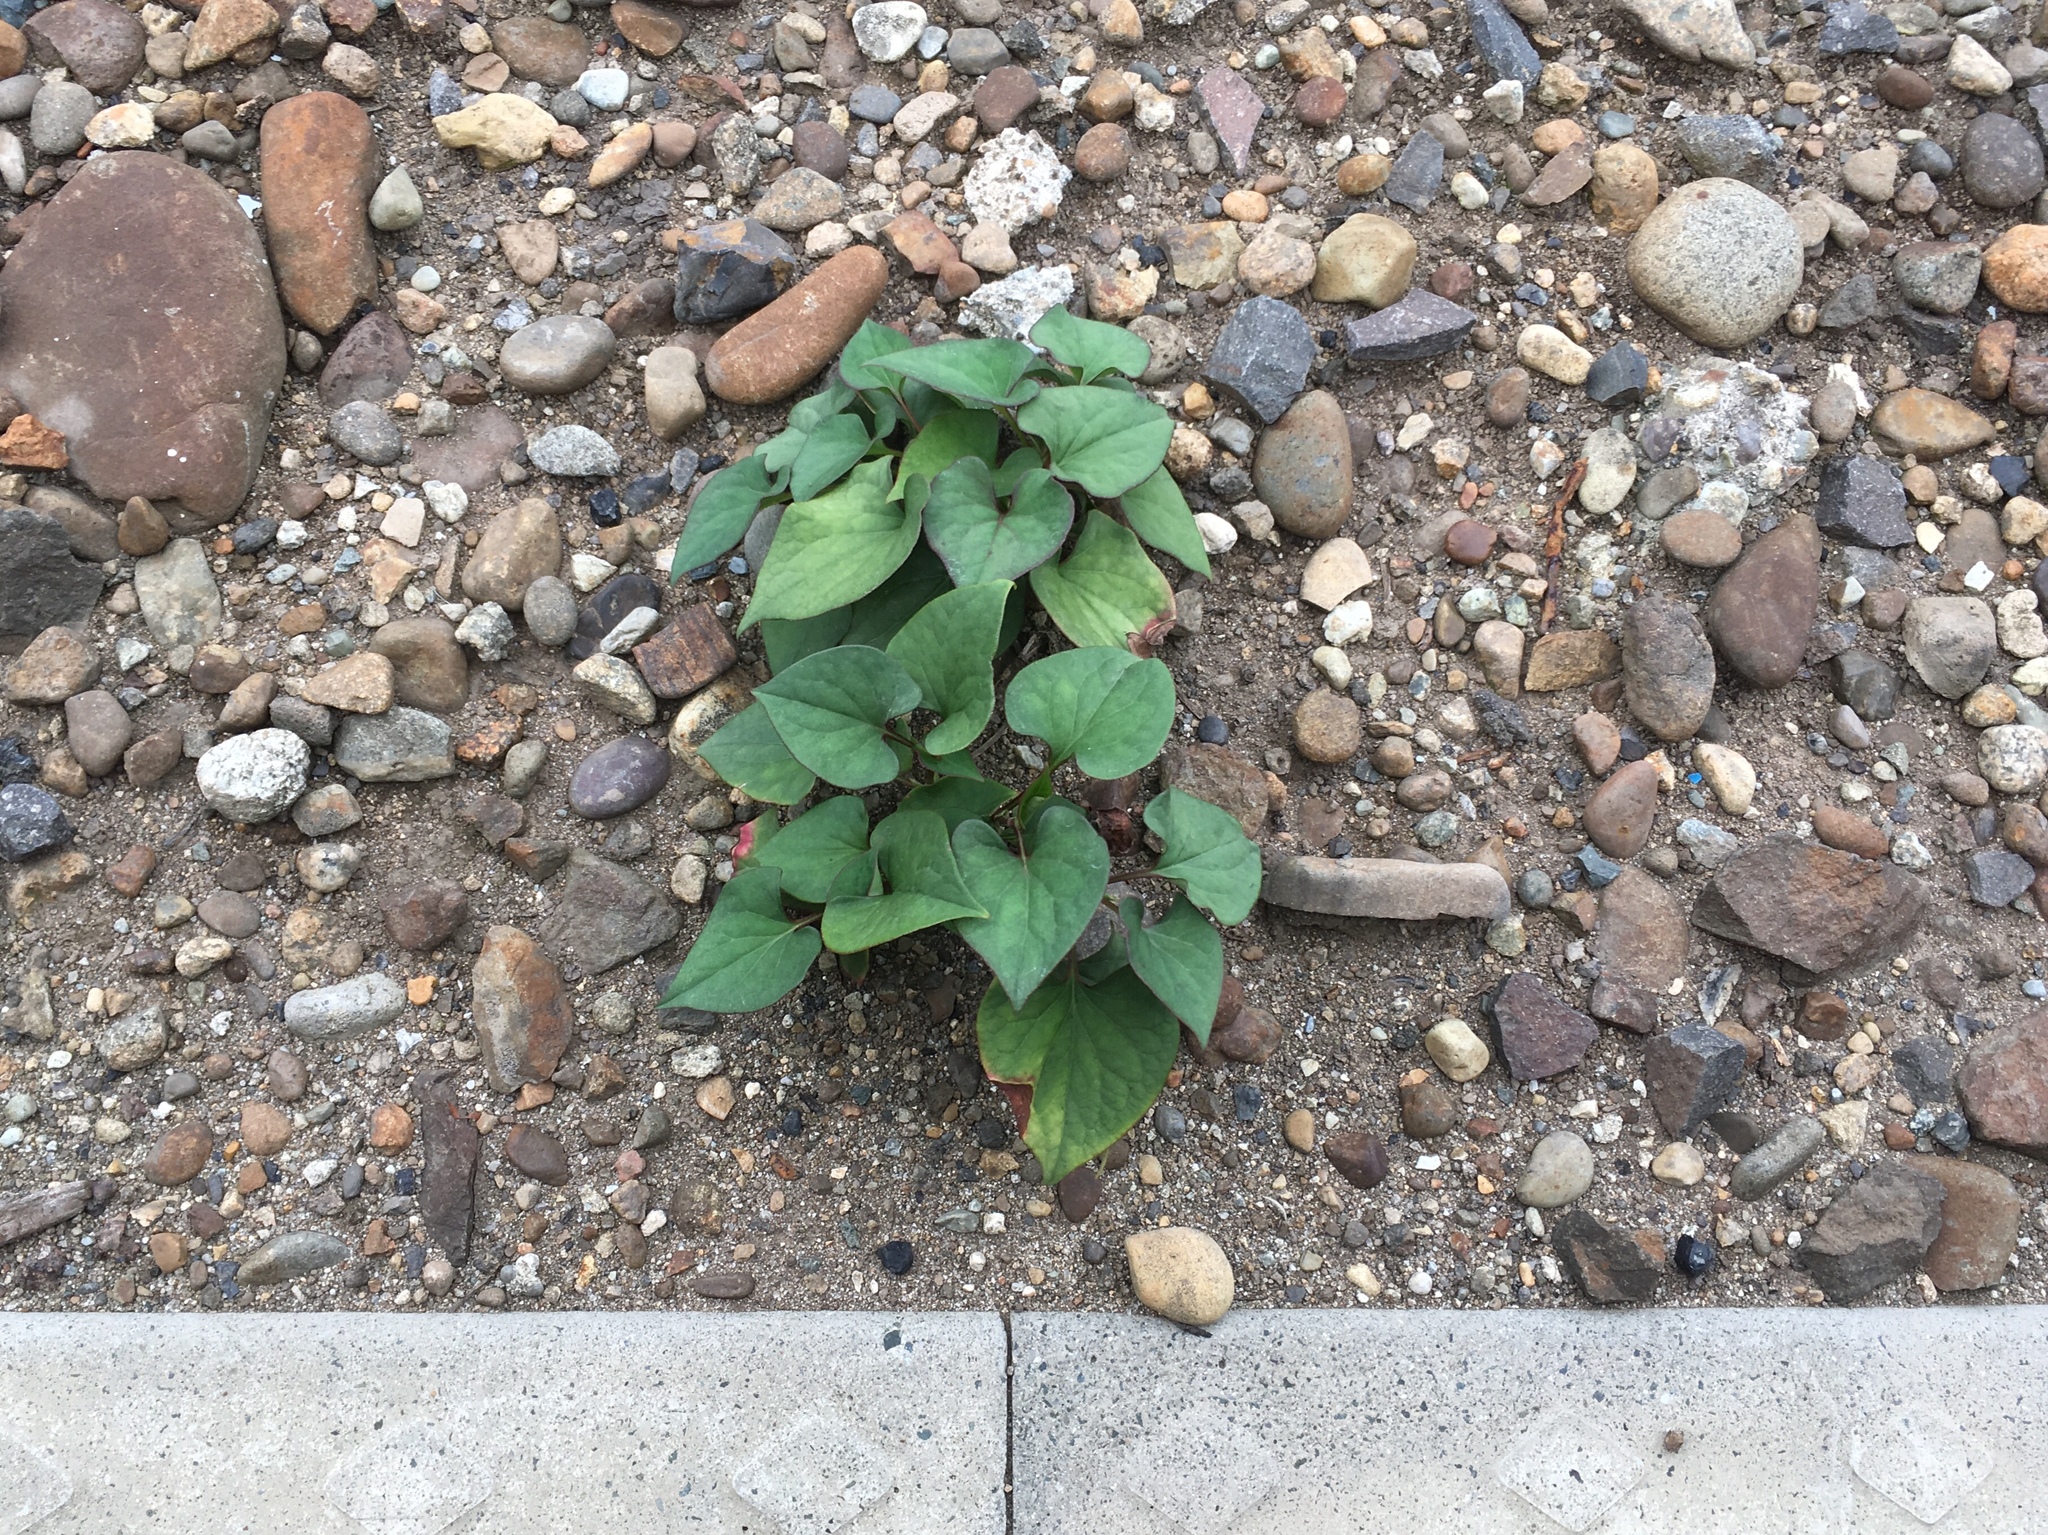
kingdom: Plantae
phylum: Tracheophyta
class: Magnoliopsida
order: Piperales
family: Saururaceae
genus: Houttuynia
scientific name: Houttuynia cordata
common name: Chameleon
